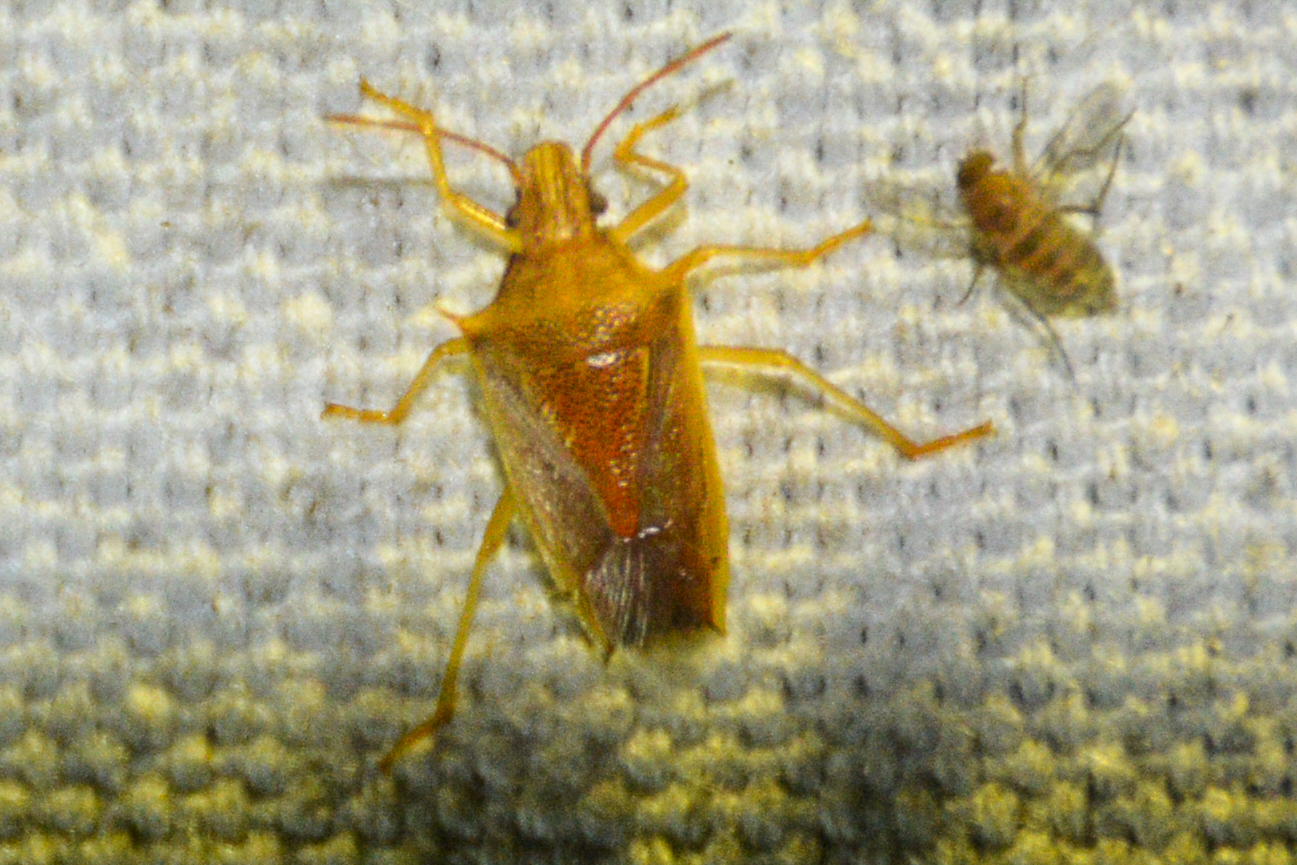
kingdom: Animalia
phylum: Arthropoda
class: Insecta
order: Hemiptera
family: Pentatomidae
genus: Oebalus
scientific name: Oebalus pugnax
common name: Rice stink bug
